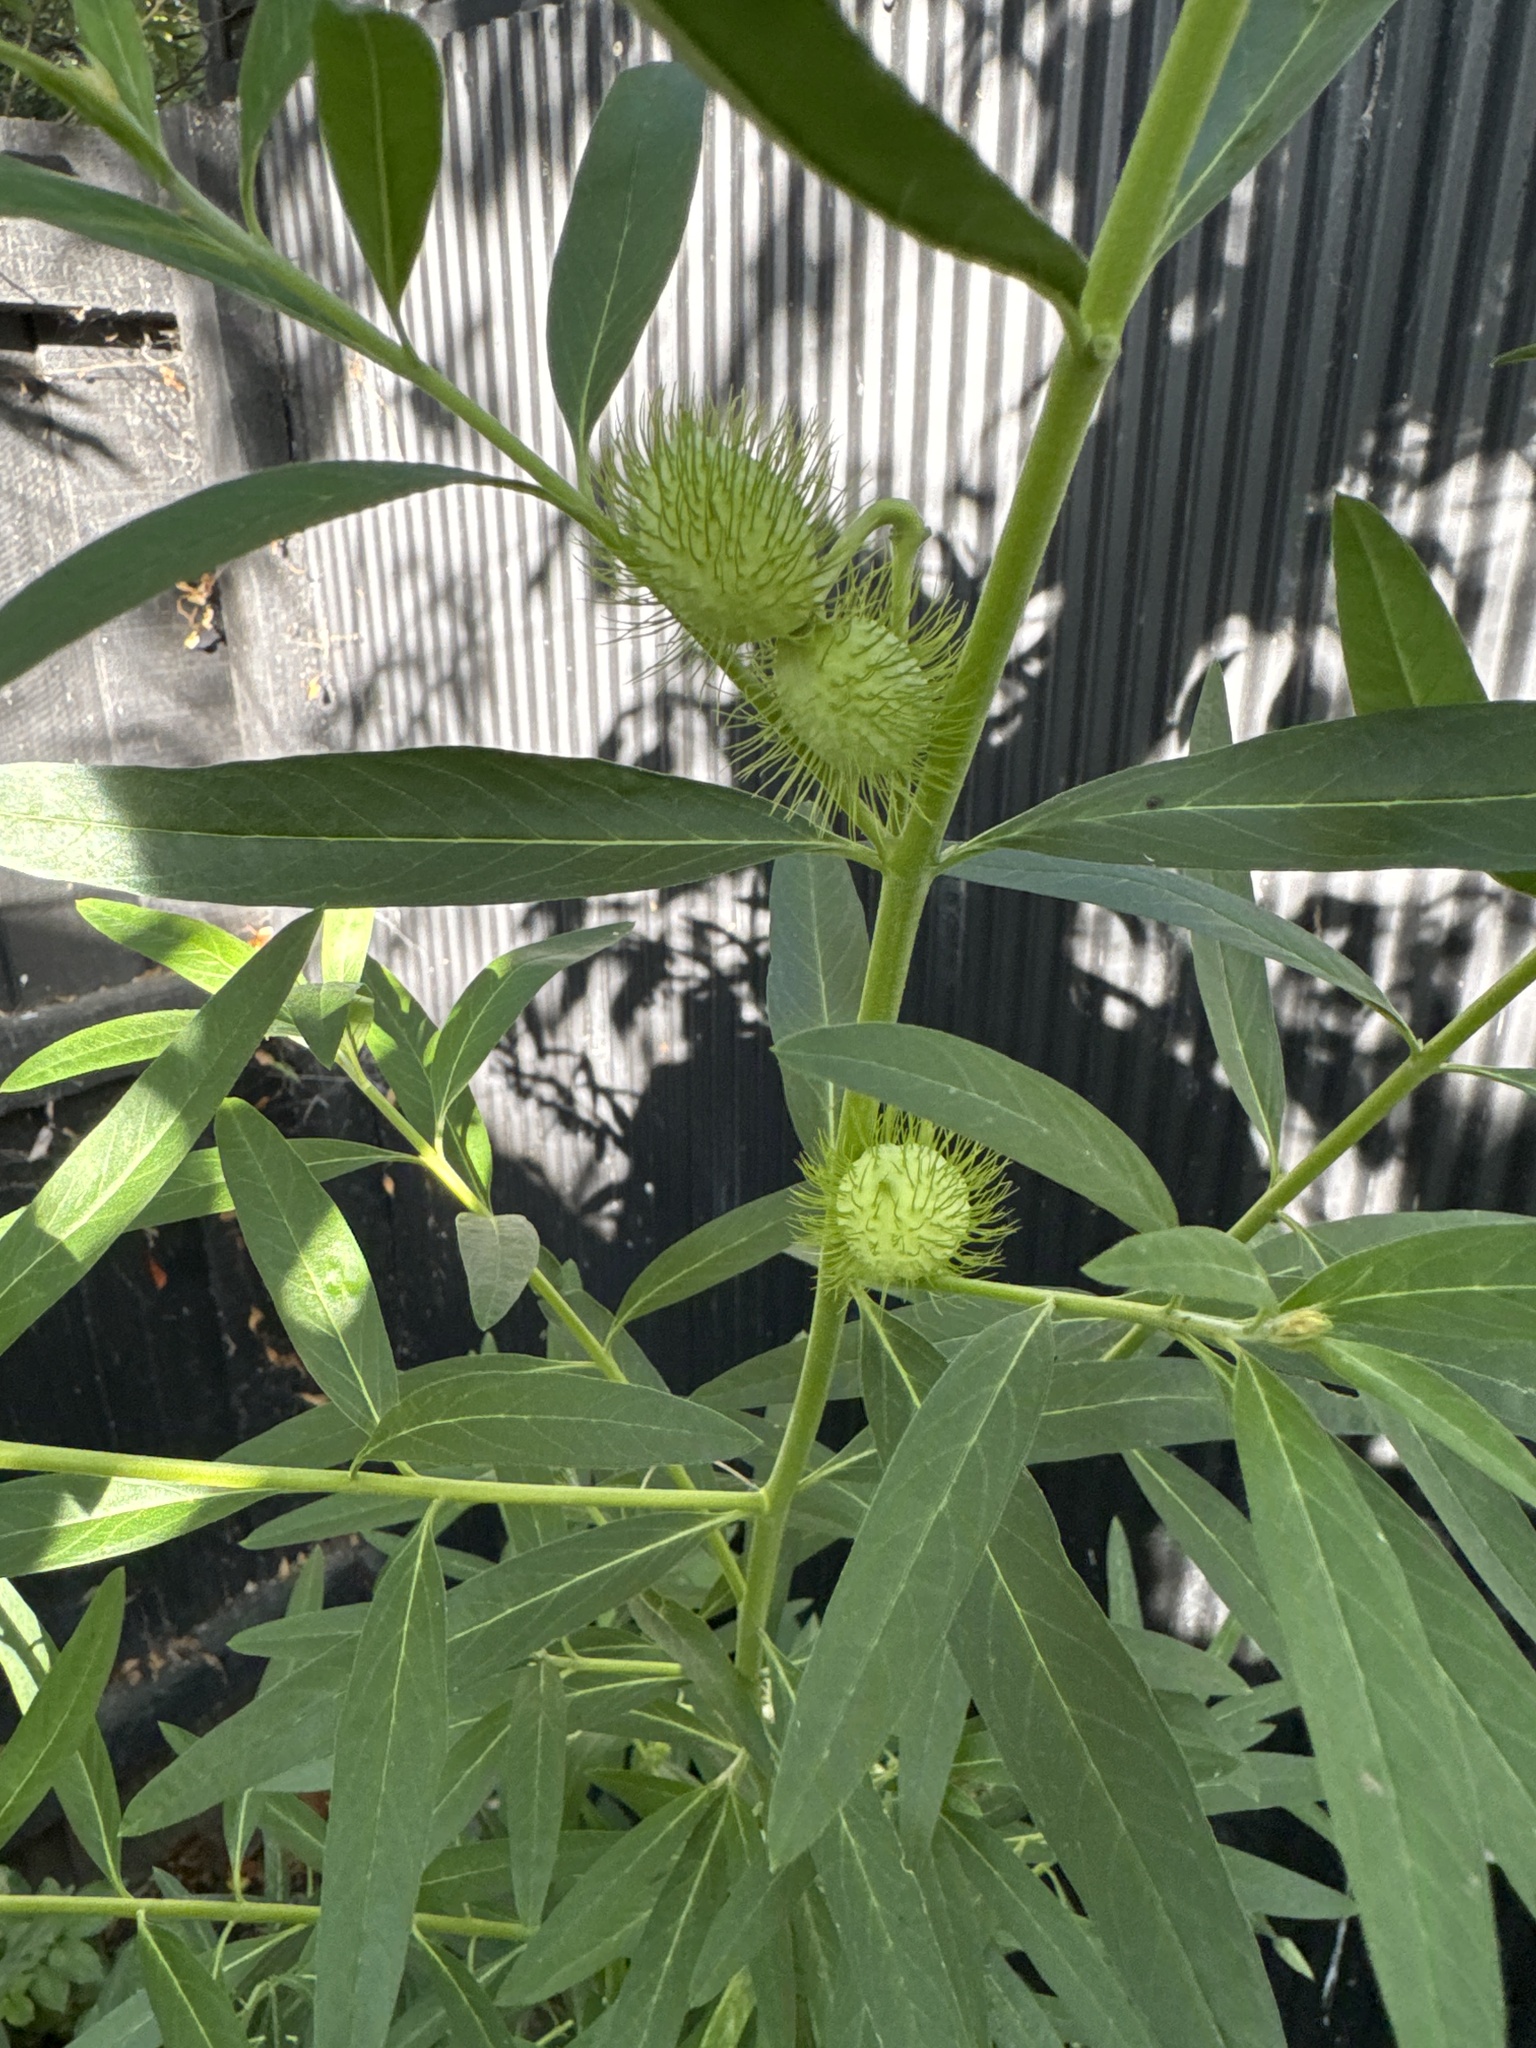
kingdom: Plantae
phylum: Tracheophyta
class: Magnoliopsida
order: Gentianales
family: Apocynaceae
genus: Gomphocarpus
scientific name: Gomphocarpus physocarpus
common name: Balloon cotton bush
